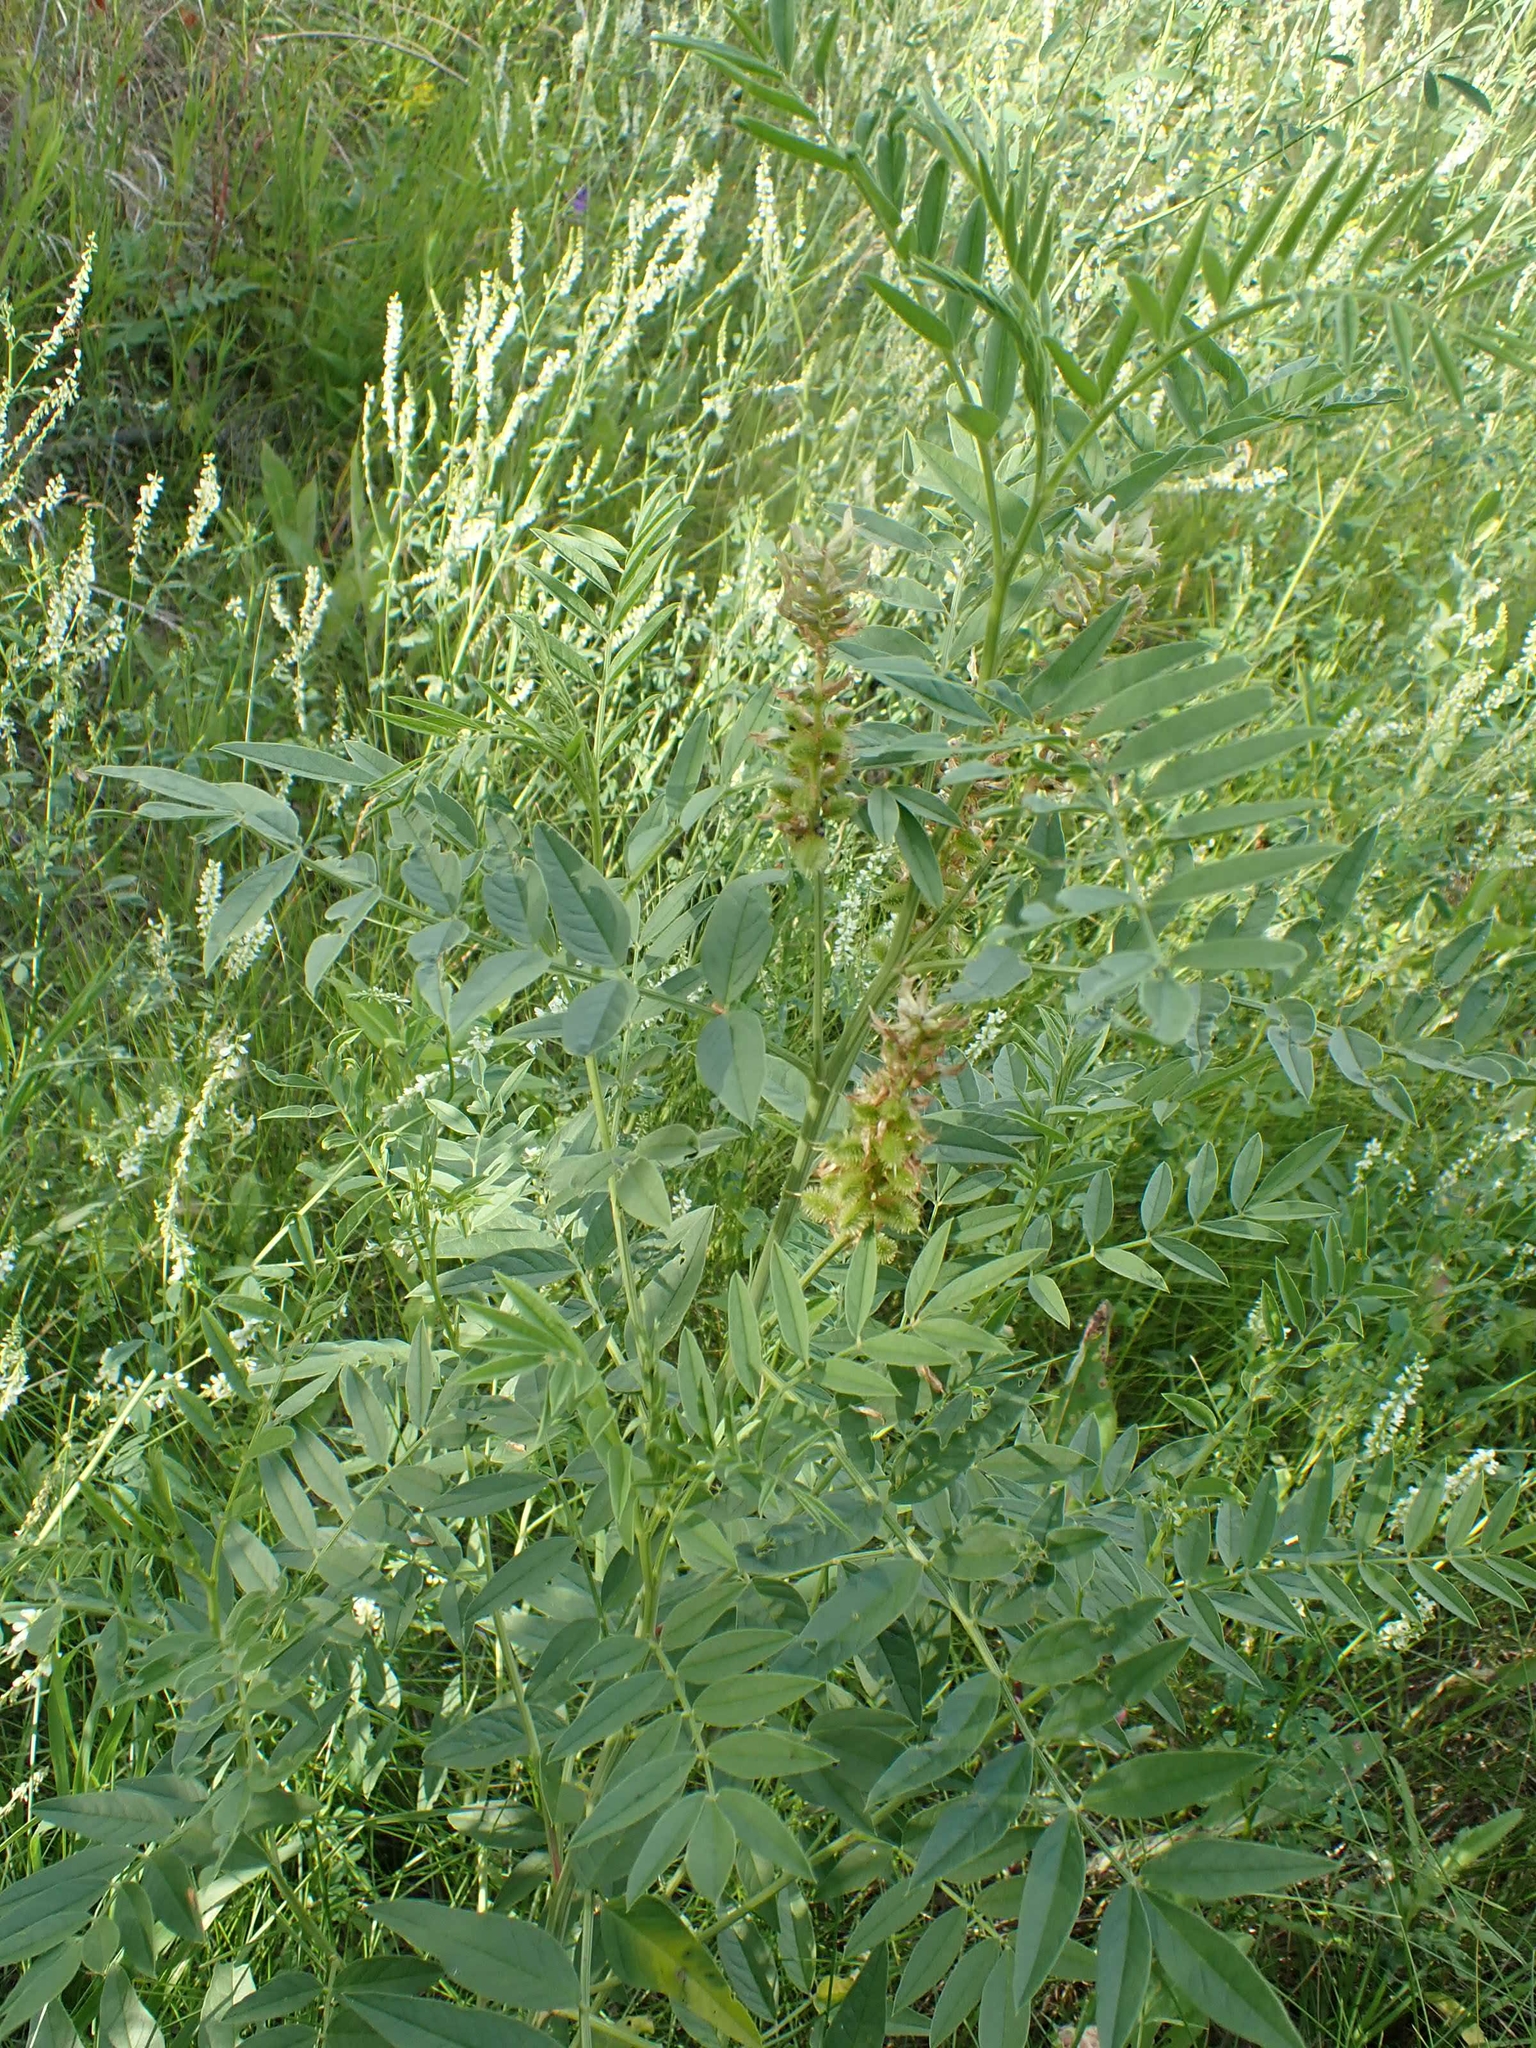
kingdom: Plantae
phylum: Tracheophyta
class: Magnoliopsida
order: Fabales
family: Fabaceae
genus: Glycyrrhiza
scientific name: Glycyrrhiza lepidota
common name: American liquorice
